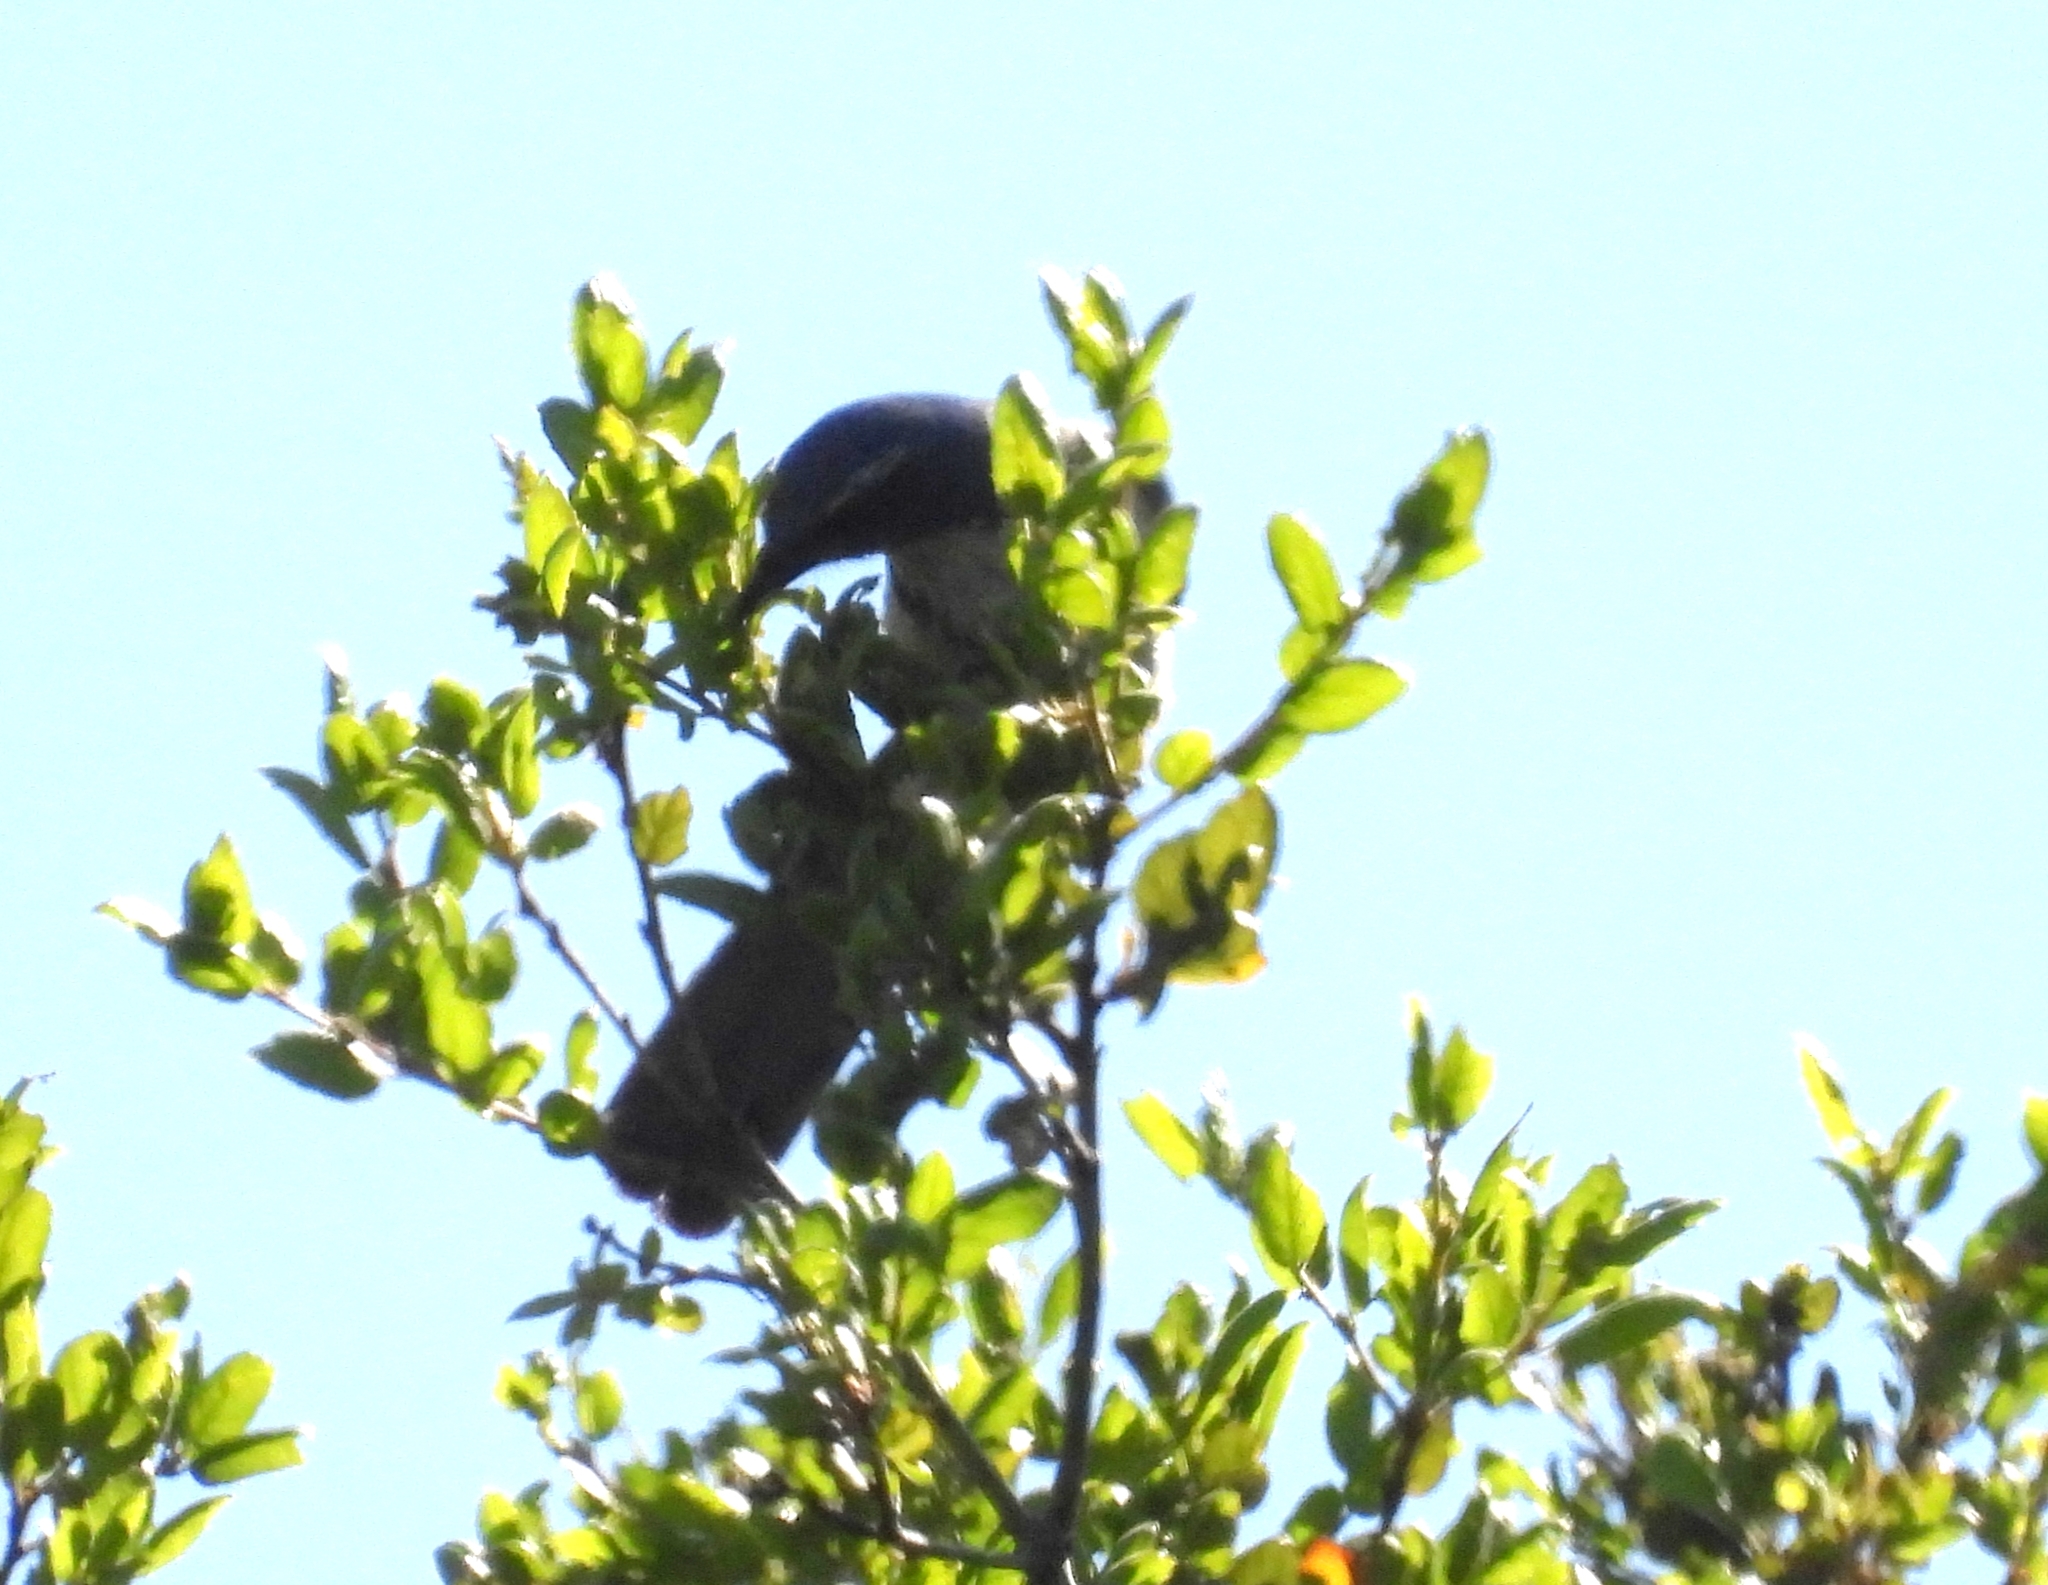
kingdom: Animalia
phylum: Chordata
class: Aves
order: Passeriformes
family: Corvidae
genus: Aphelocoma
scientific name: Aphelocoma californica
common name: California scrub-jay
